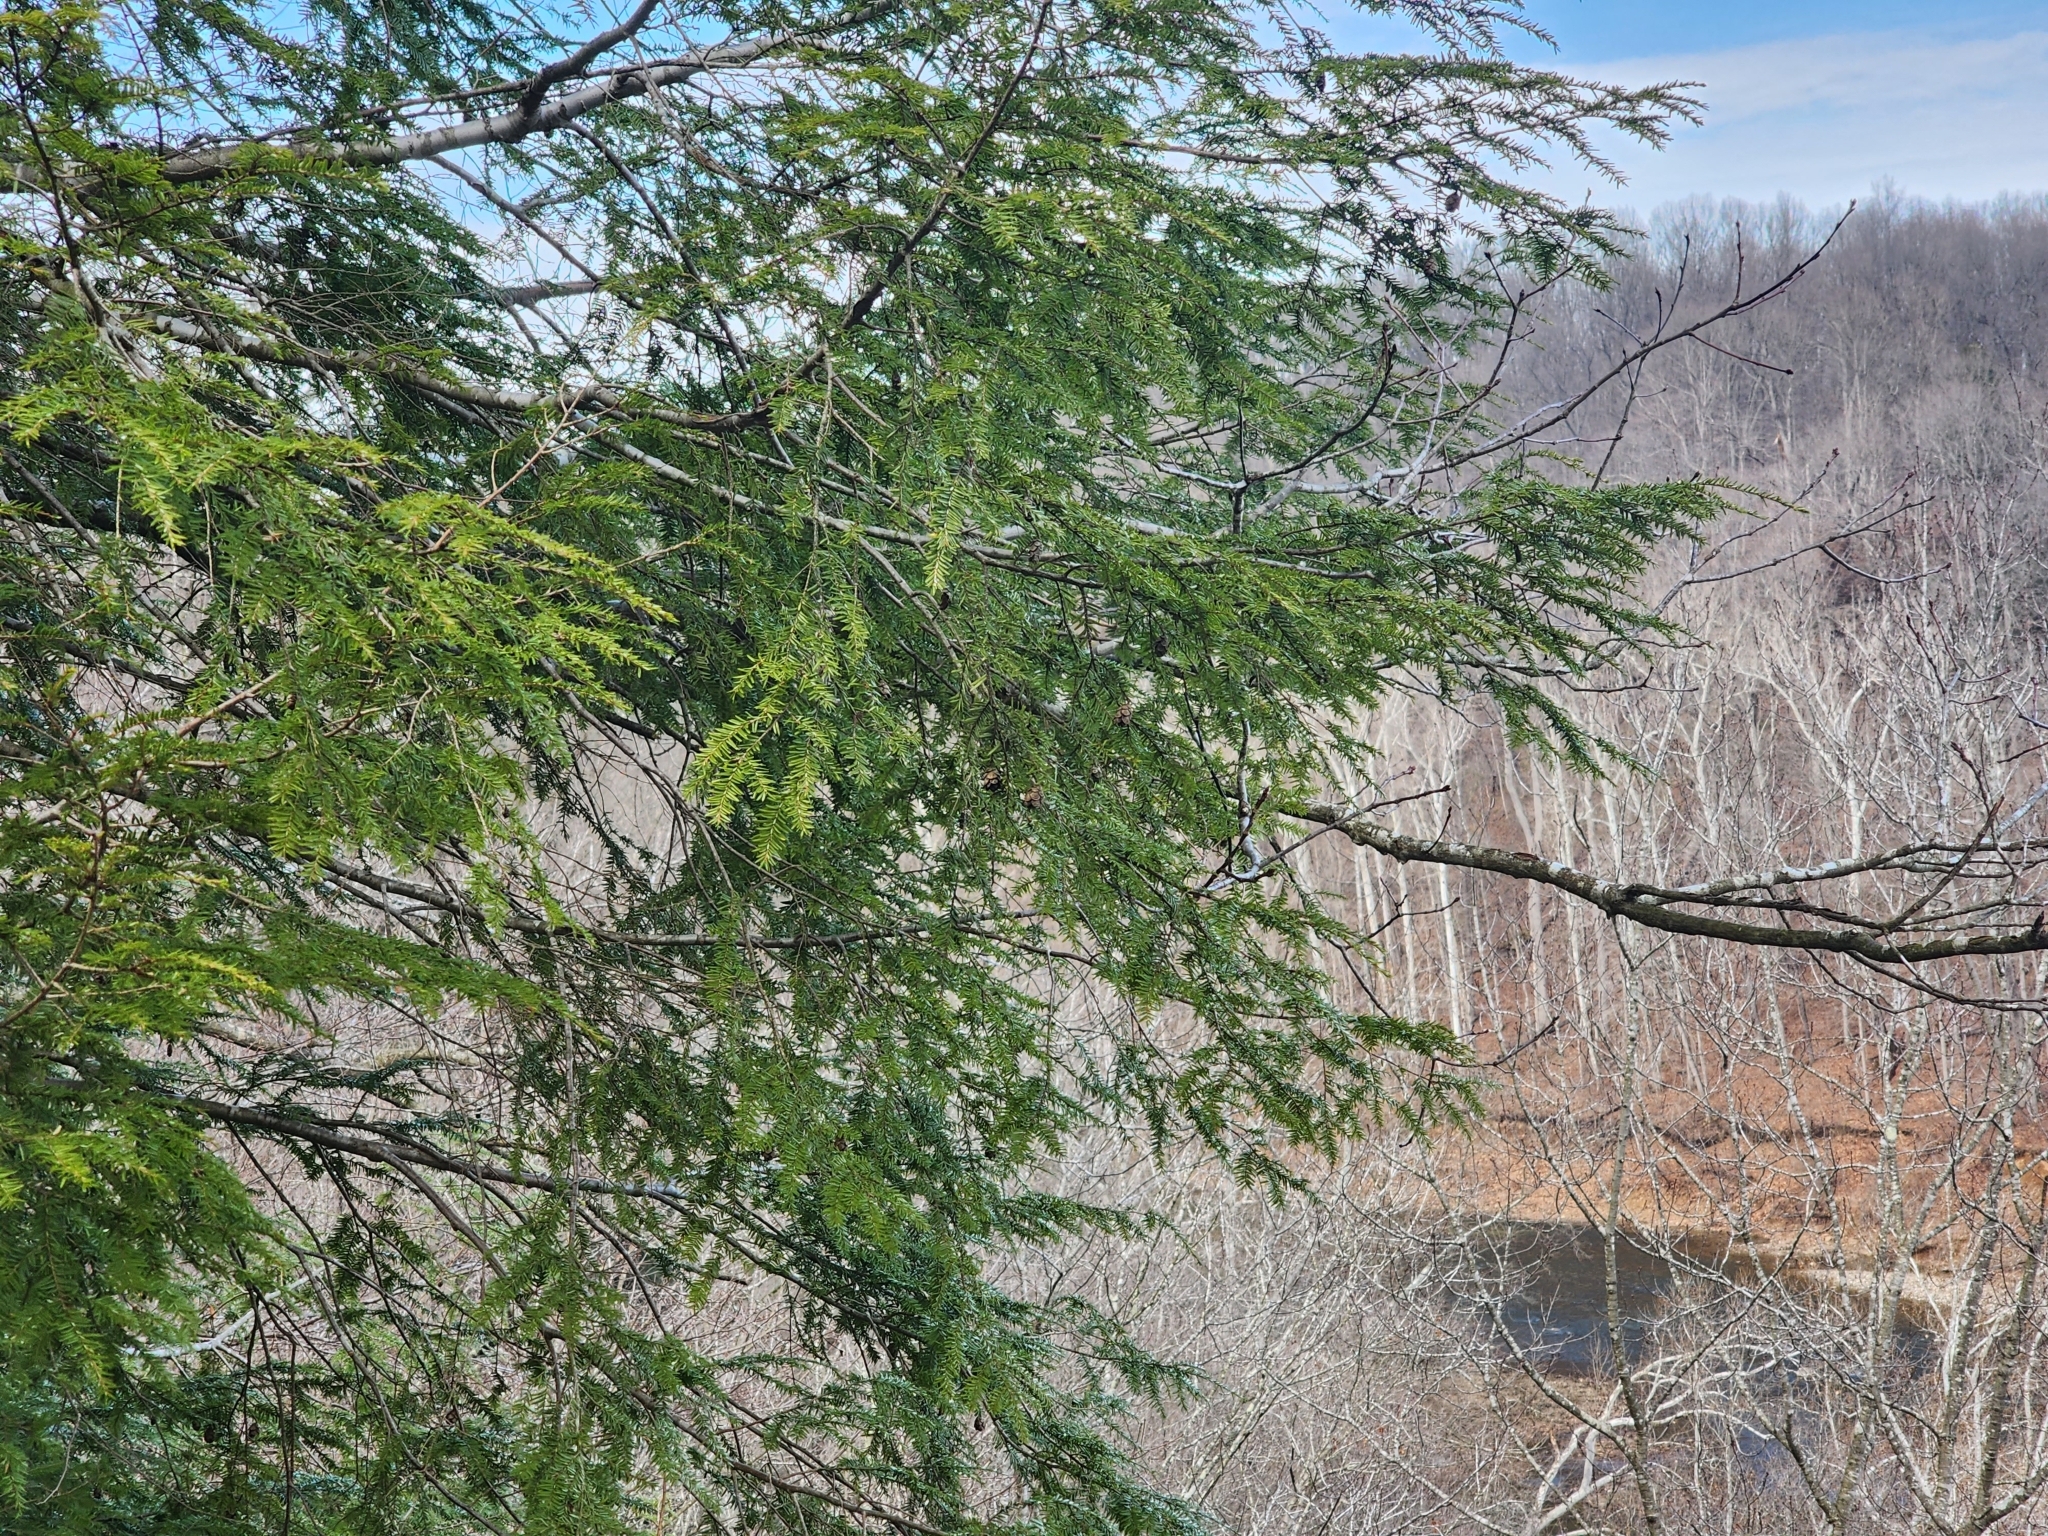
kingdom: Plantae
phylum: Tracheophyta
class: Pinopsida
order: Pinales
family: Pinaceae
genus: Tsuga
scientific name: Tsuga canadensis
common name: Eastern hemlock
